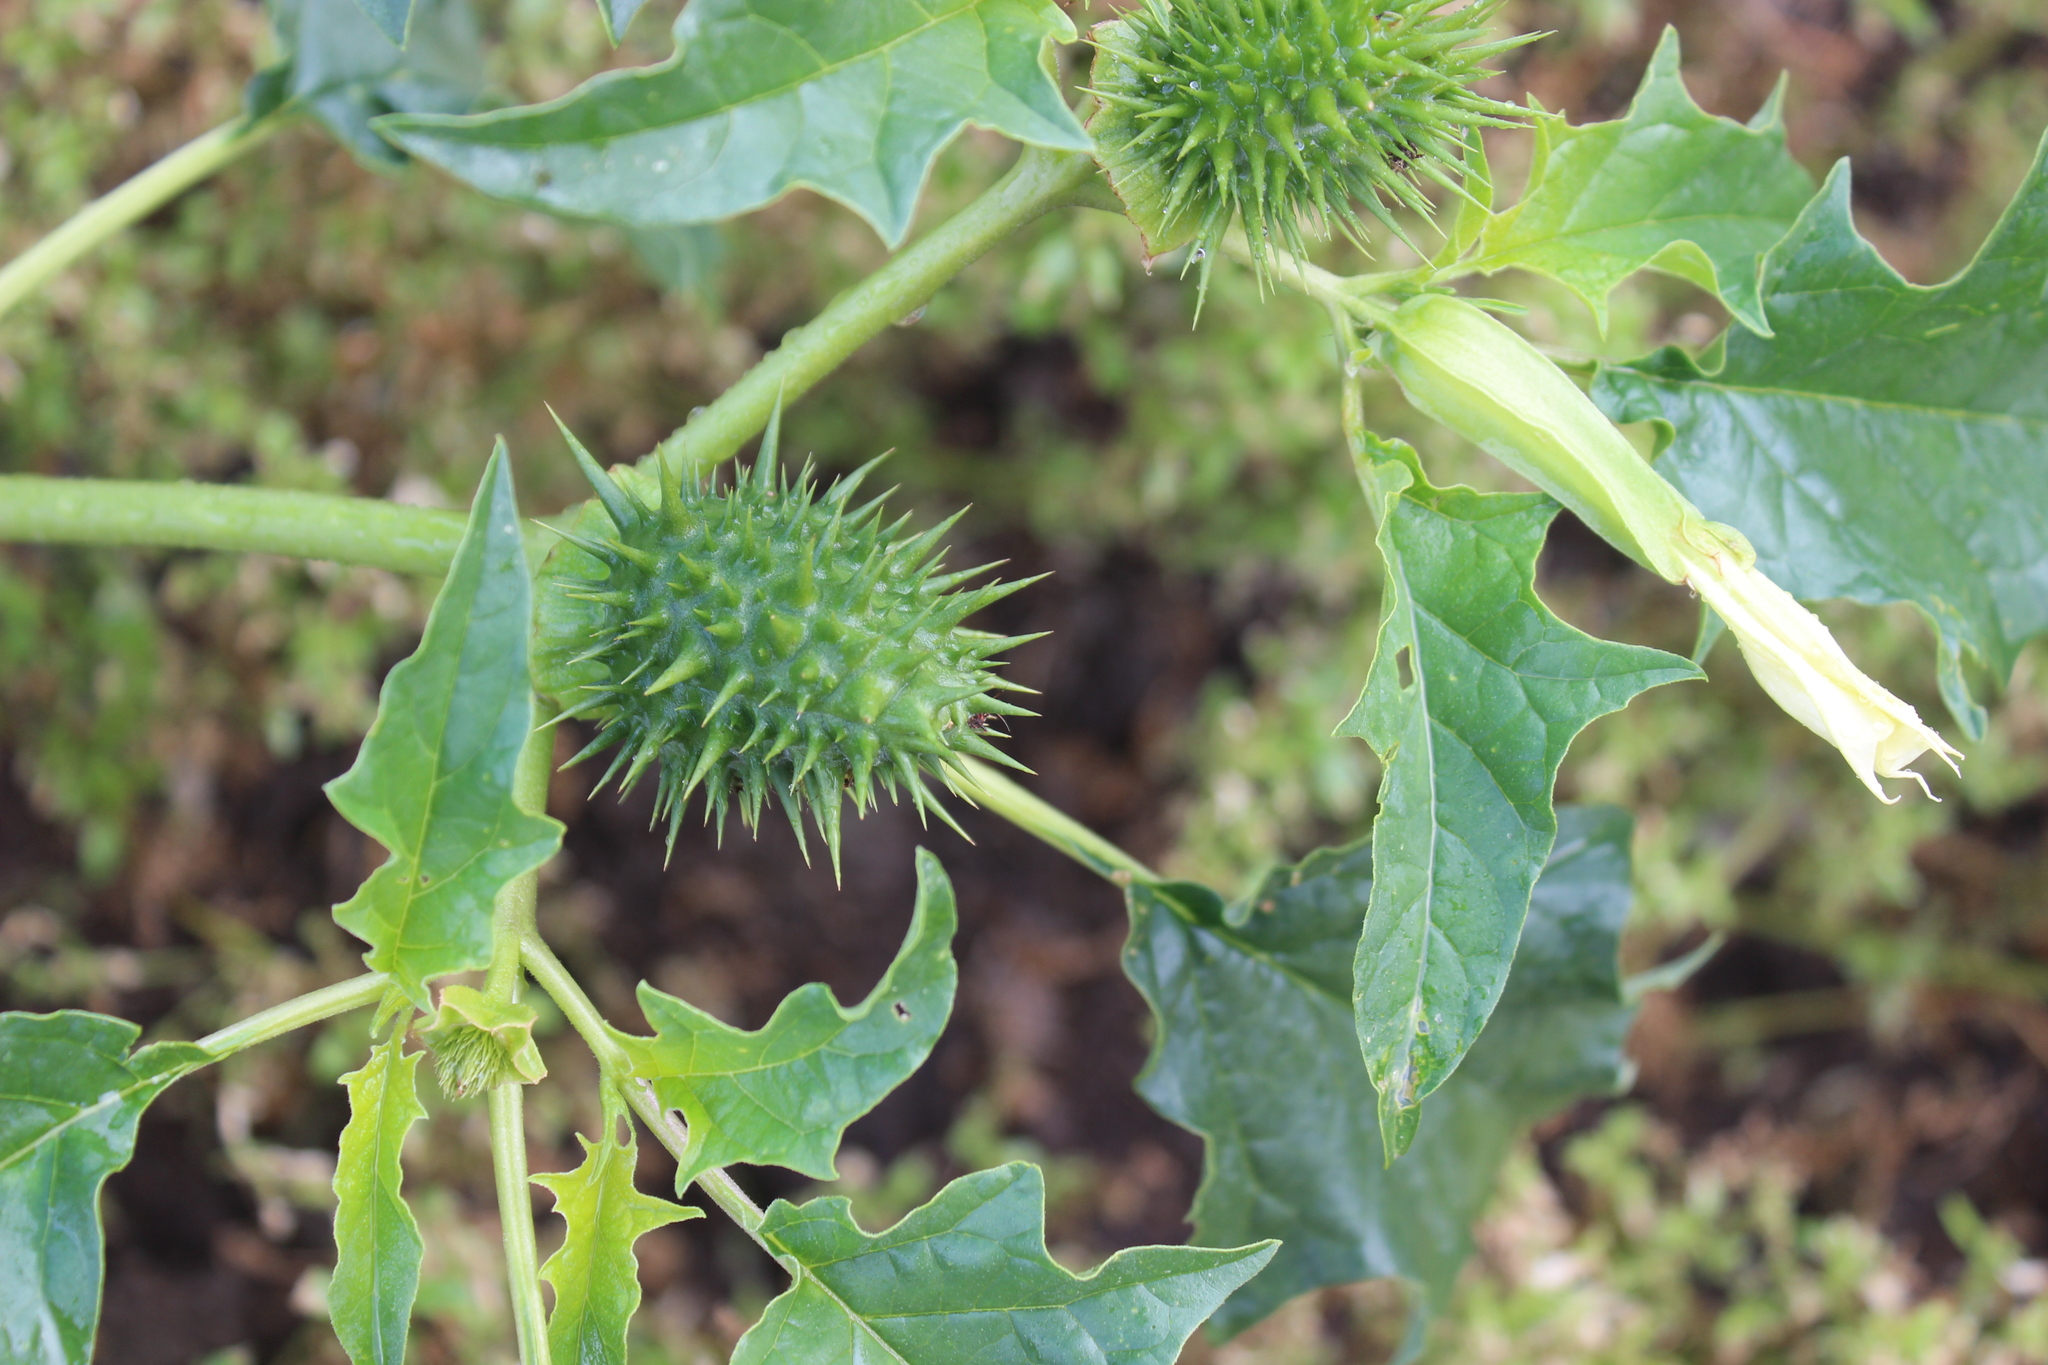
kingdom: Plantae
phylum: Tracheophyta
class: Magnoliopsida
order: Solanales
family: Solanaceae
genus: Datura
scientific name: Datura stramonium
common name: Thorn-apple
